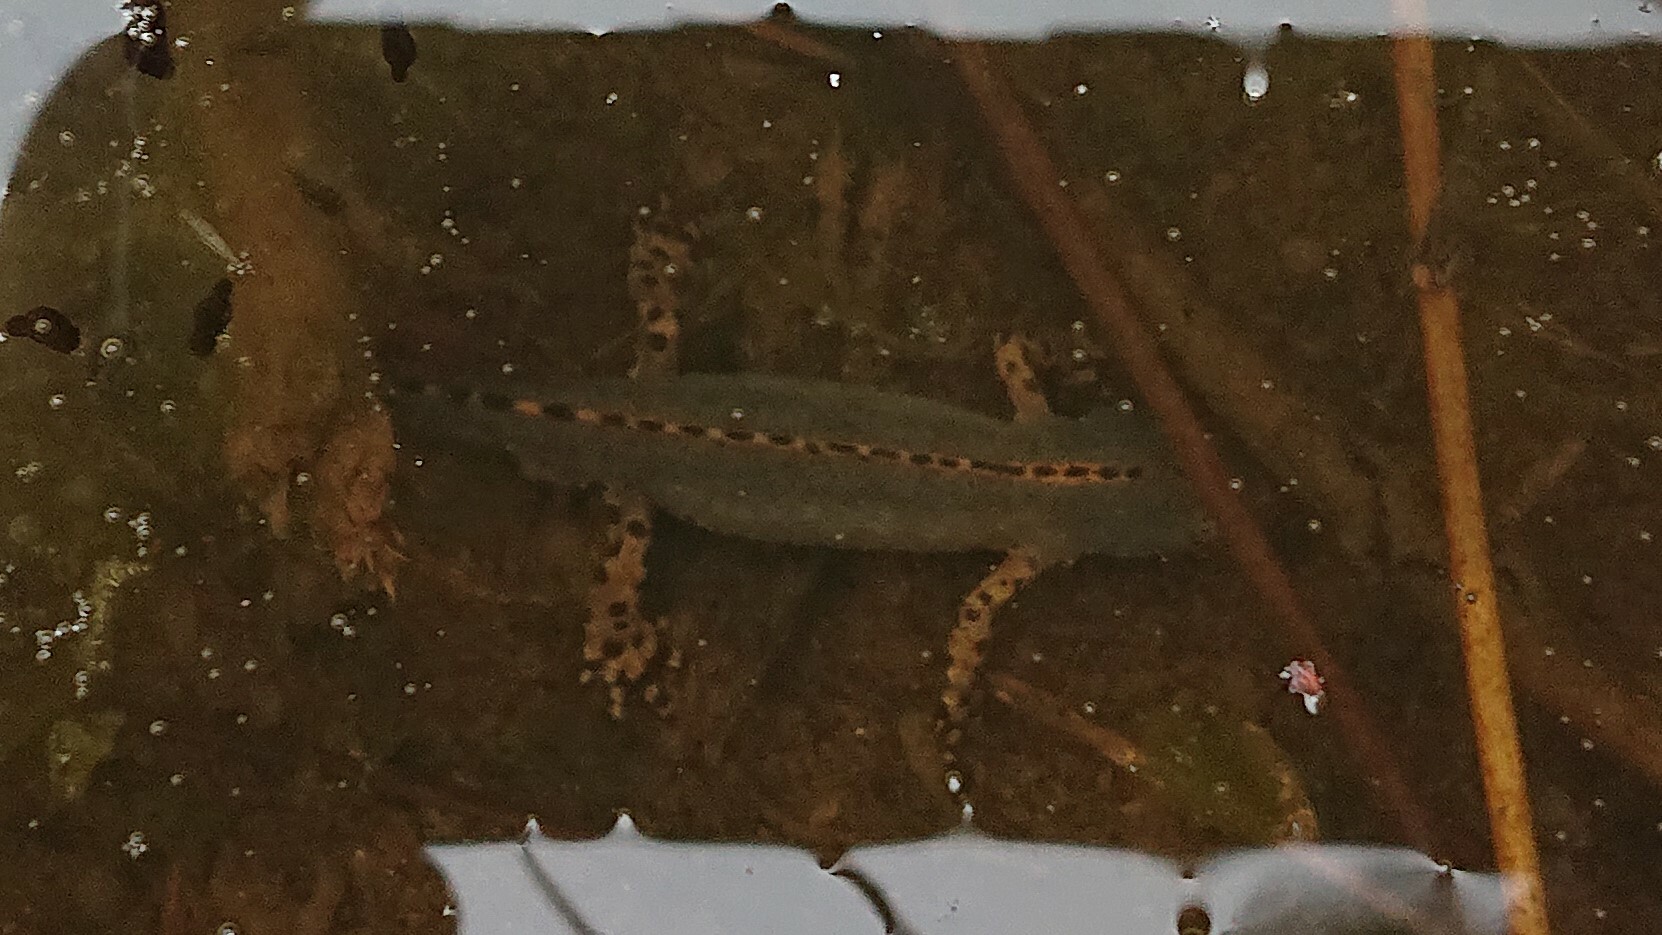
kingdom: Animalia
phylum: Chordata
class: Amphibia
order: Caudata
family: Salamandridae
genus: Ichthyosaura
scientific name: Ichthyosaura alpestris
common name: Alpine newt
